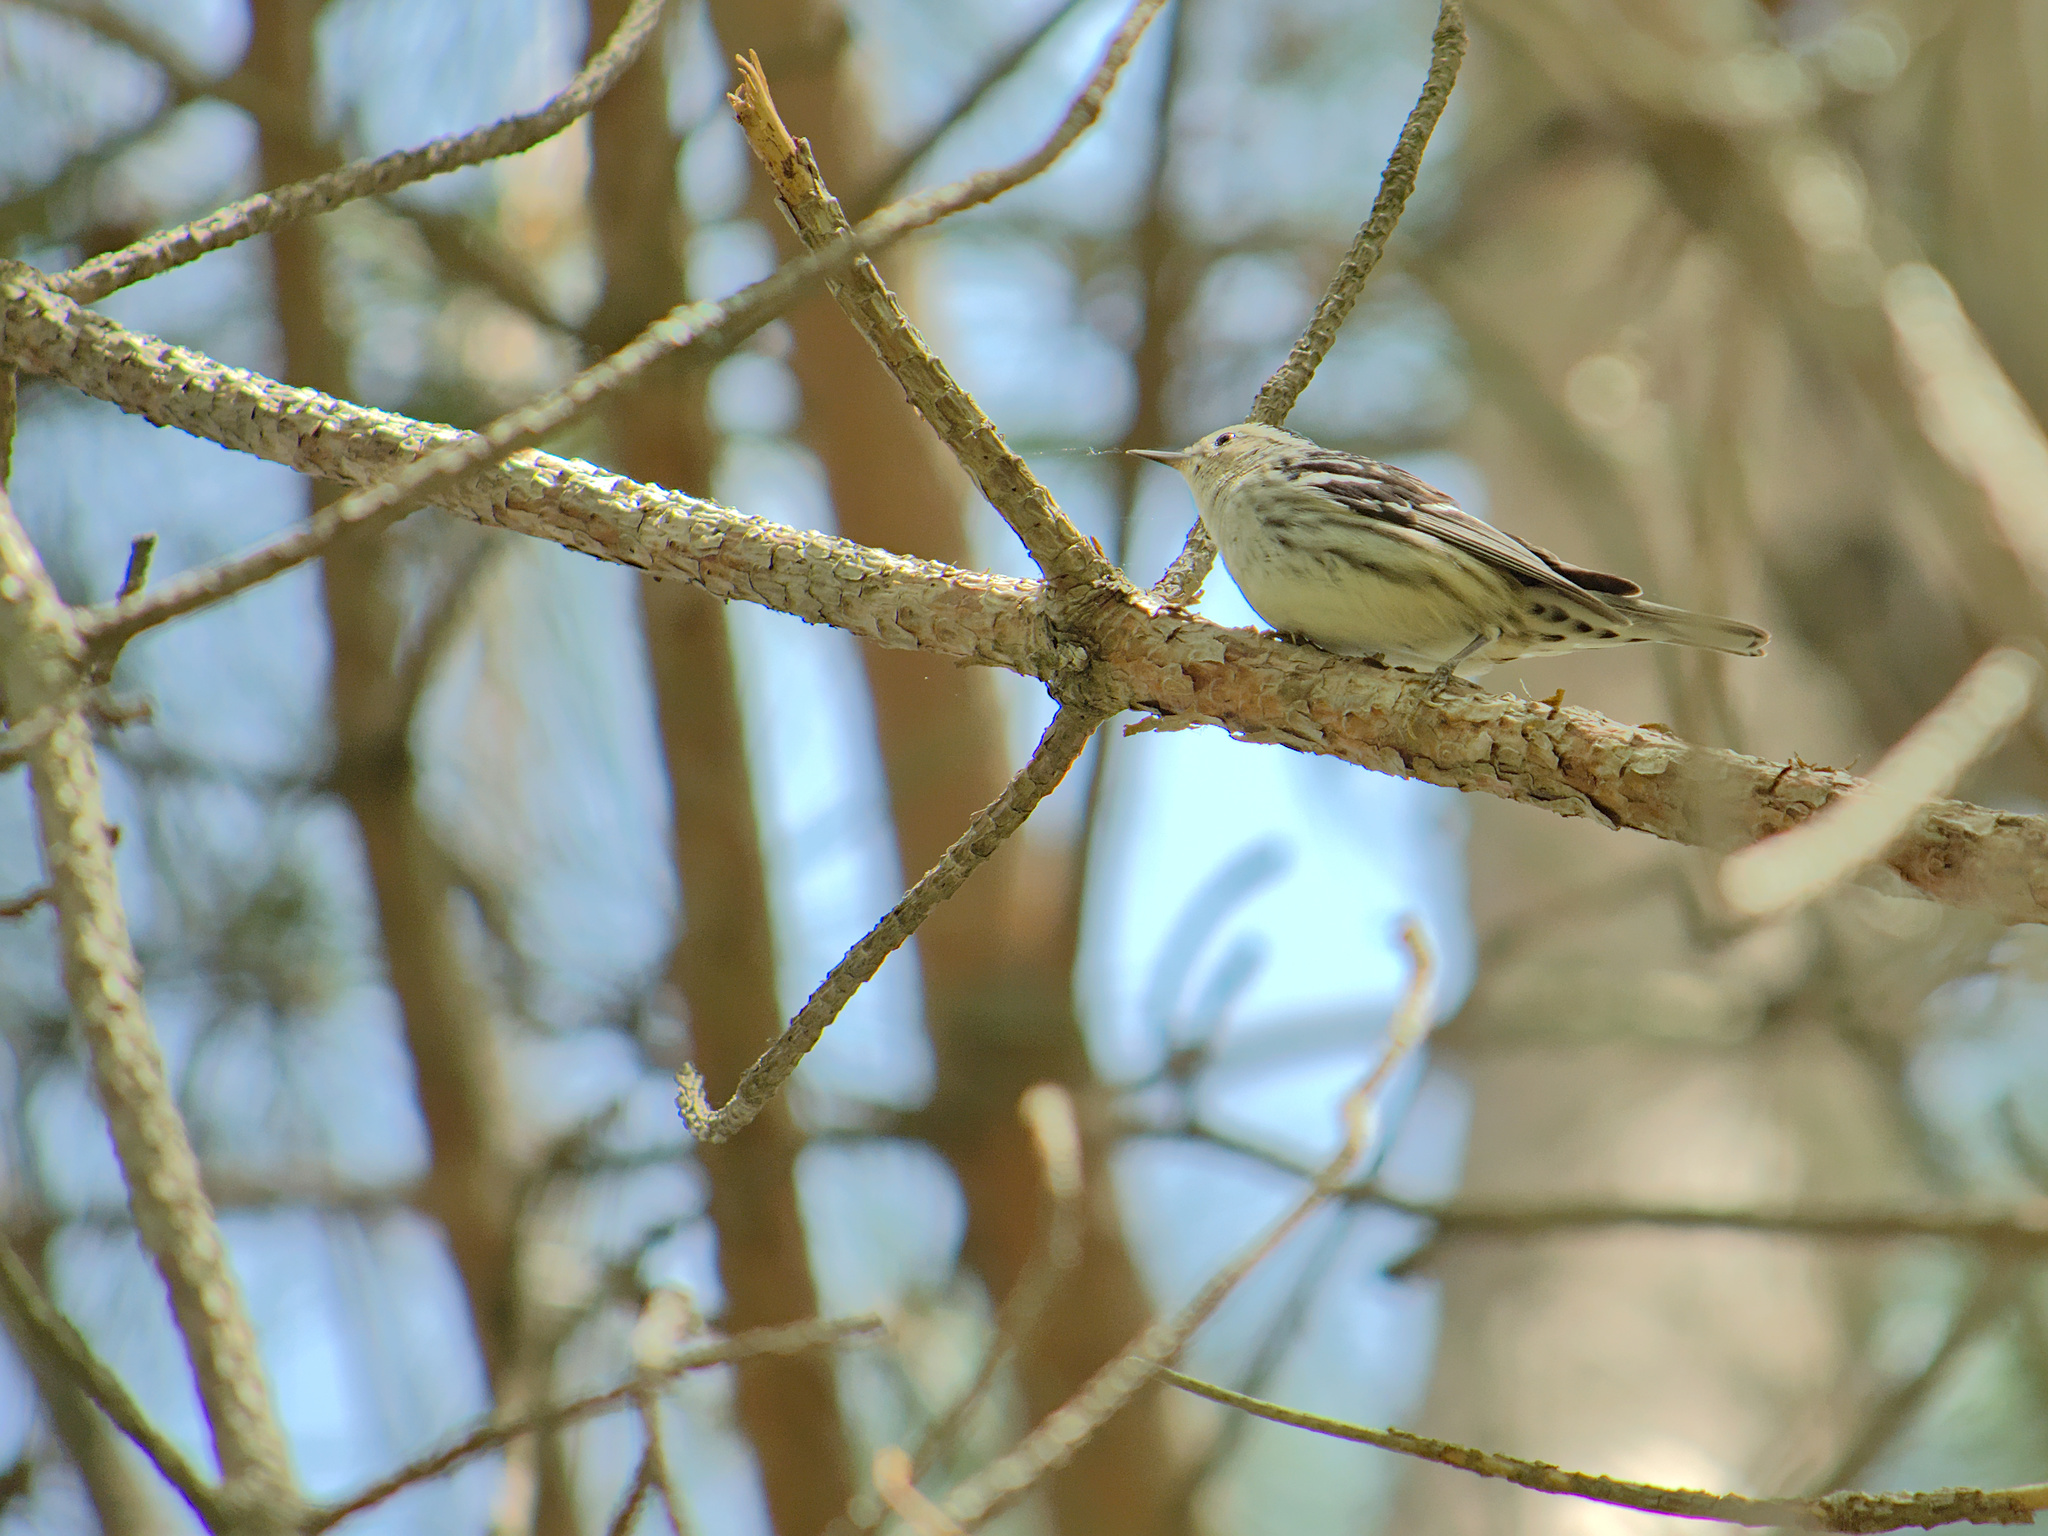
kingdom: Animalia
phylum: Chordata
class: Aves
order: Passeriformes
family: Parulidae
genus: Mniotilta
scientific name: Mniotilta varia
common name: Black-and-white warbler
